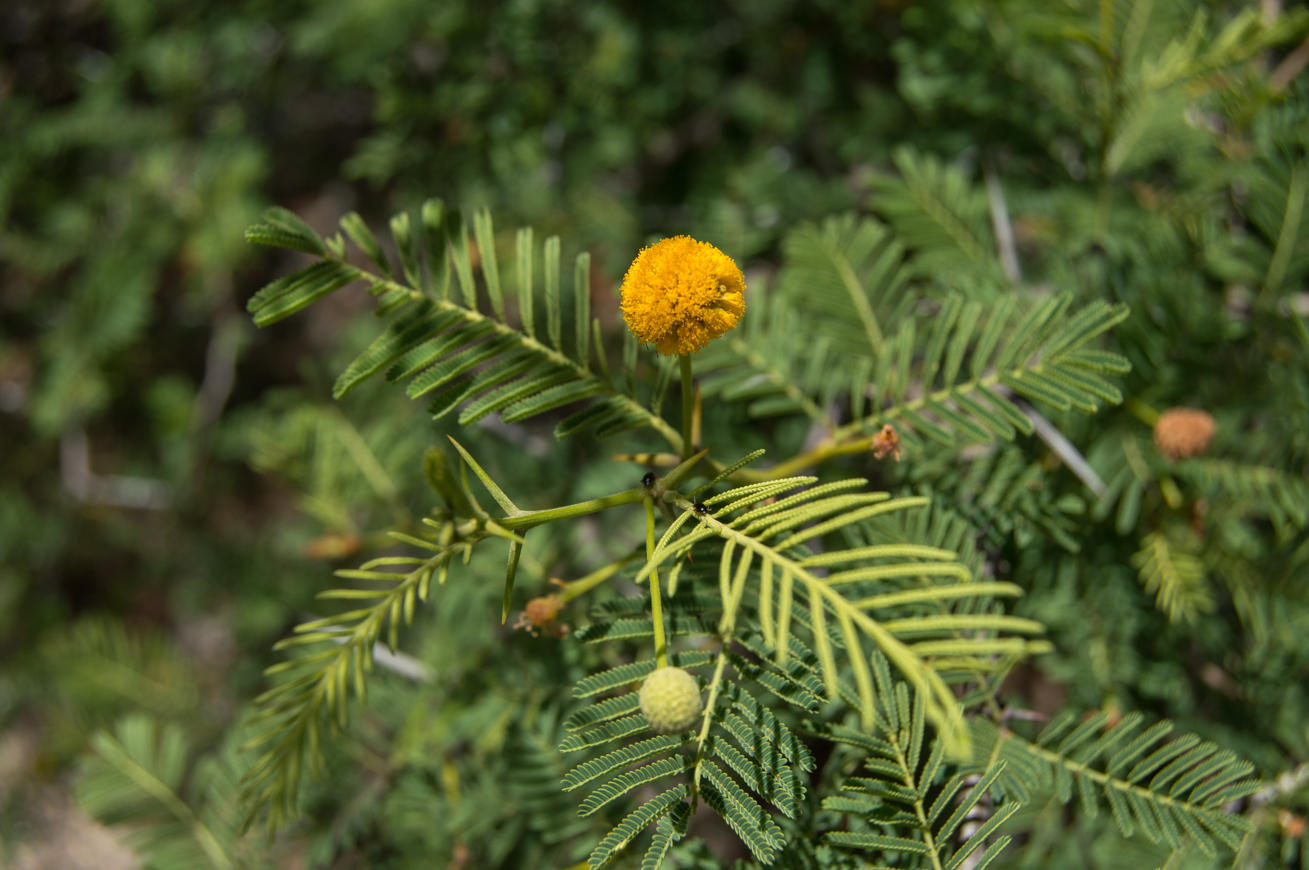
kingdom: Plantae
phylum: Tracheophyta
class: Magnoliopsida
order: Fabales
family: Fabaceae
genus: Vachellia
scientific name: Vachellia aroma
